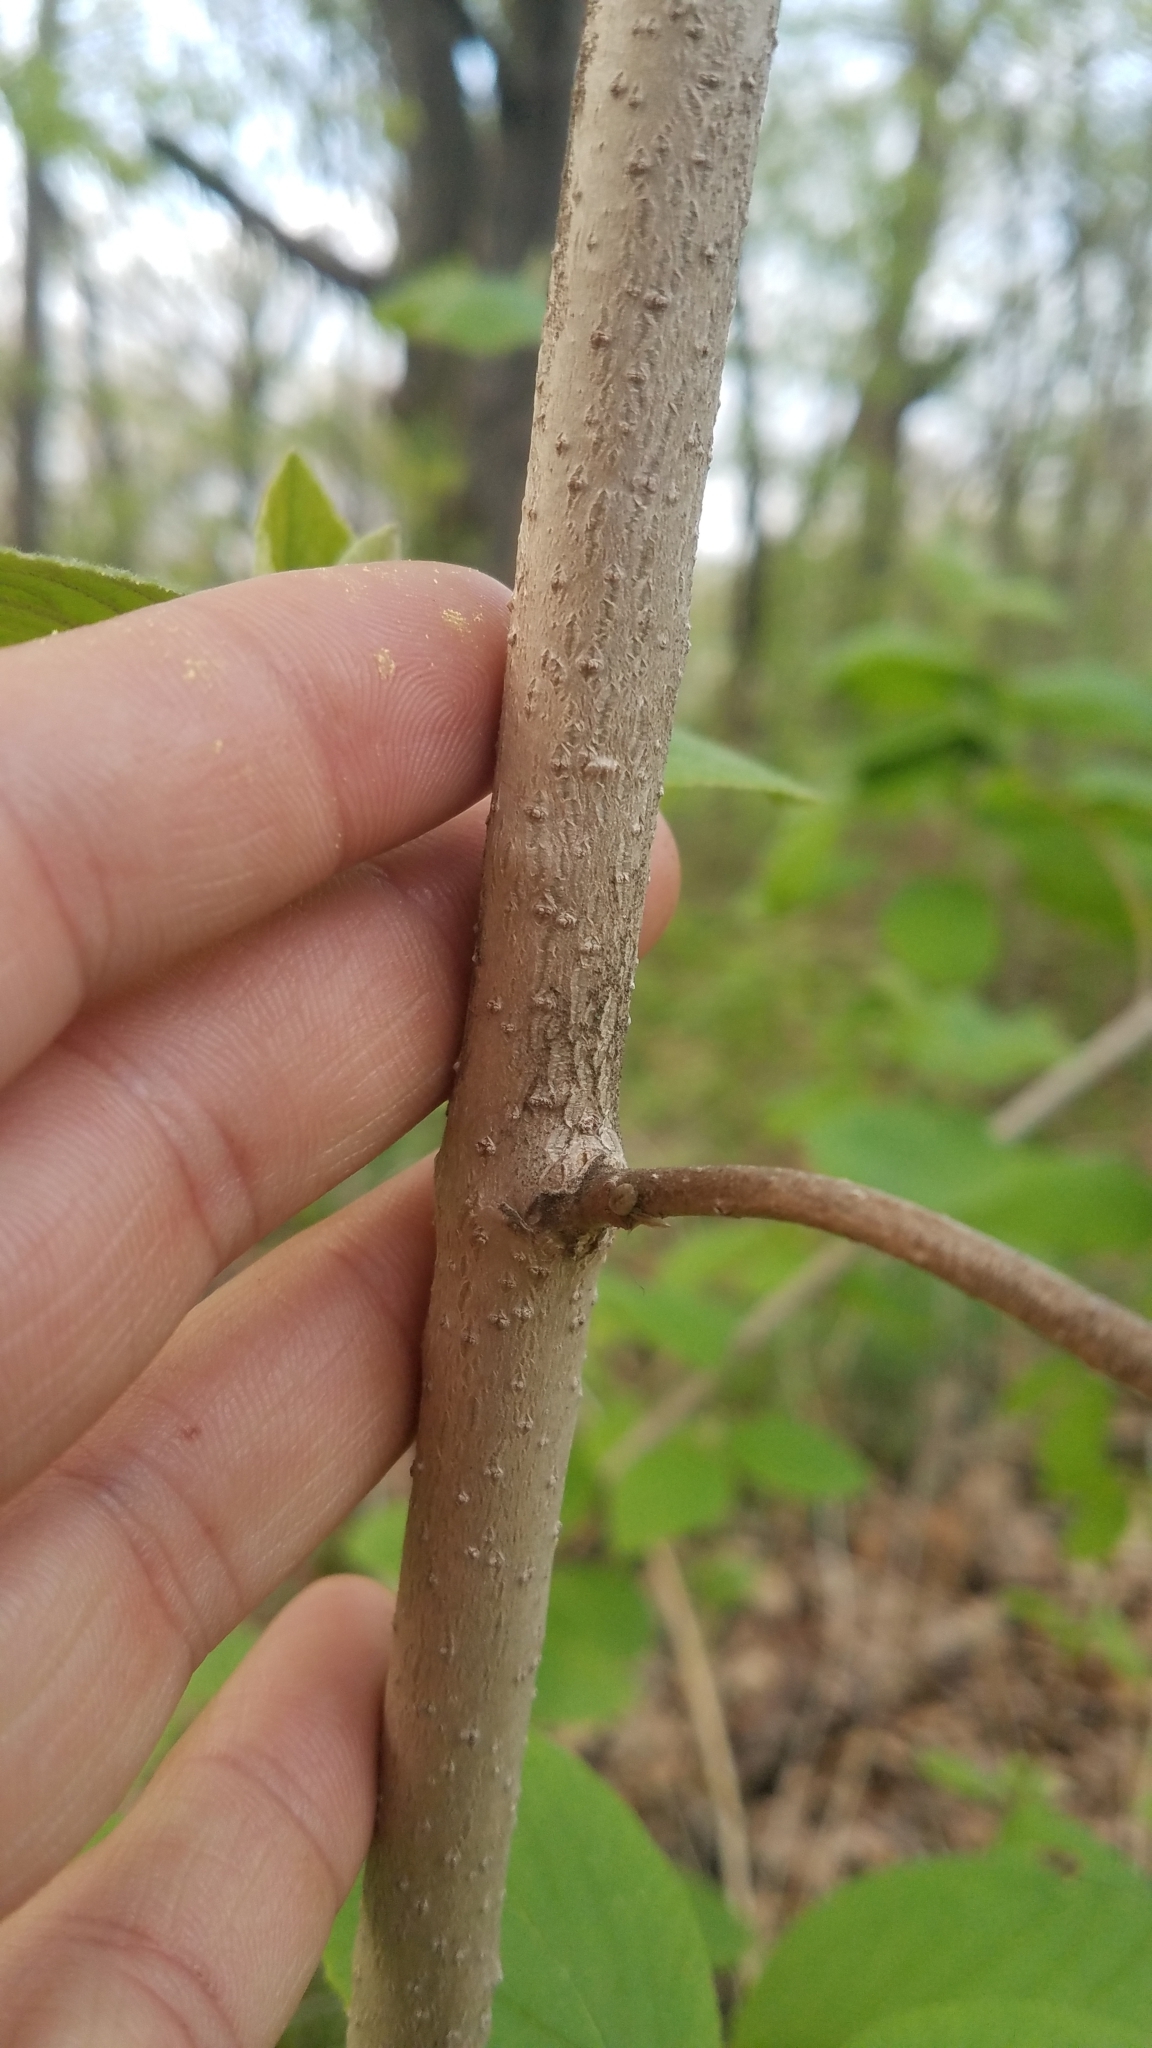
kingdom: Plantae
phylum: Tracheophyta
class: Magnoliopsida
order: Dipsacales
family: Viburnaceae
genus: Viburnum
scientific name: Viburnum lantana
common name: Wayfaring tree
